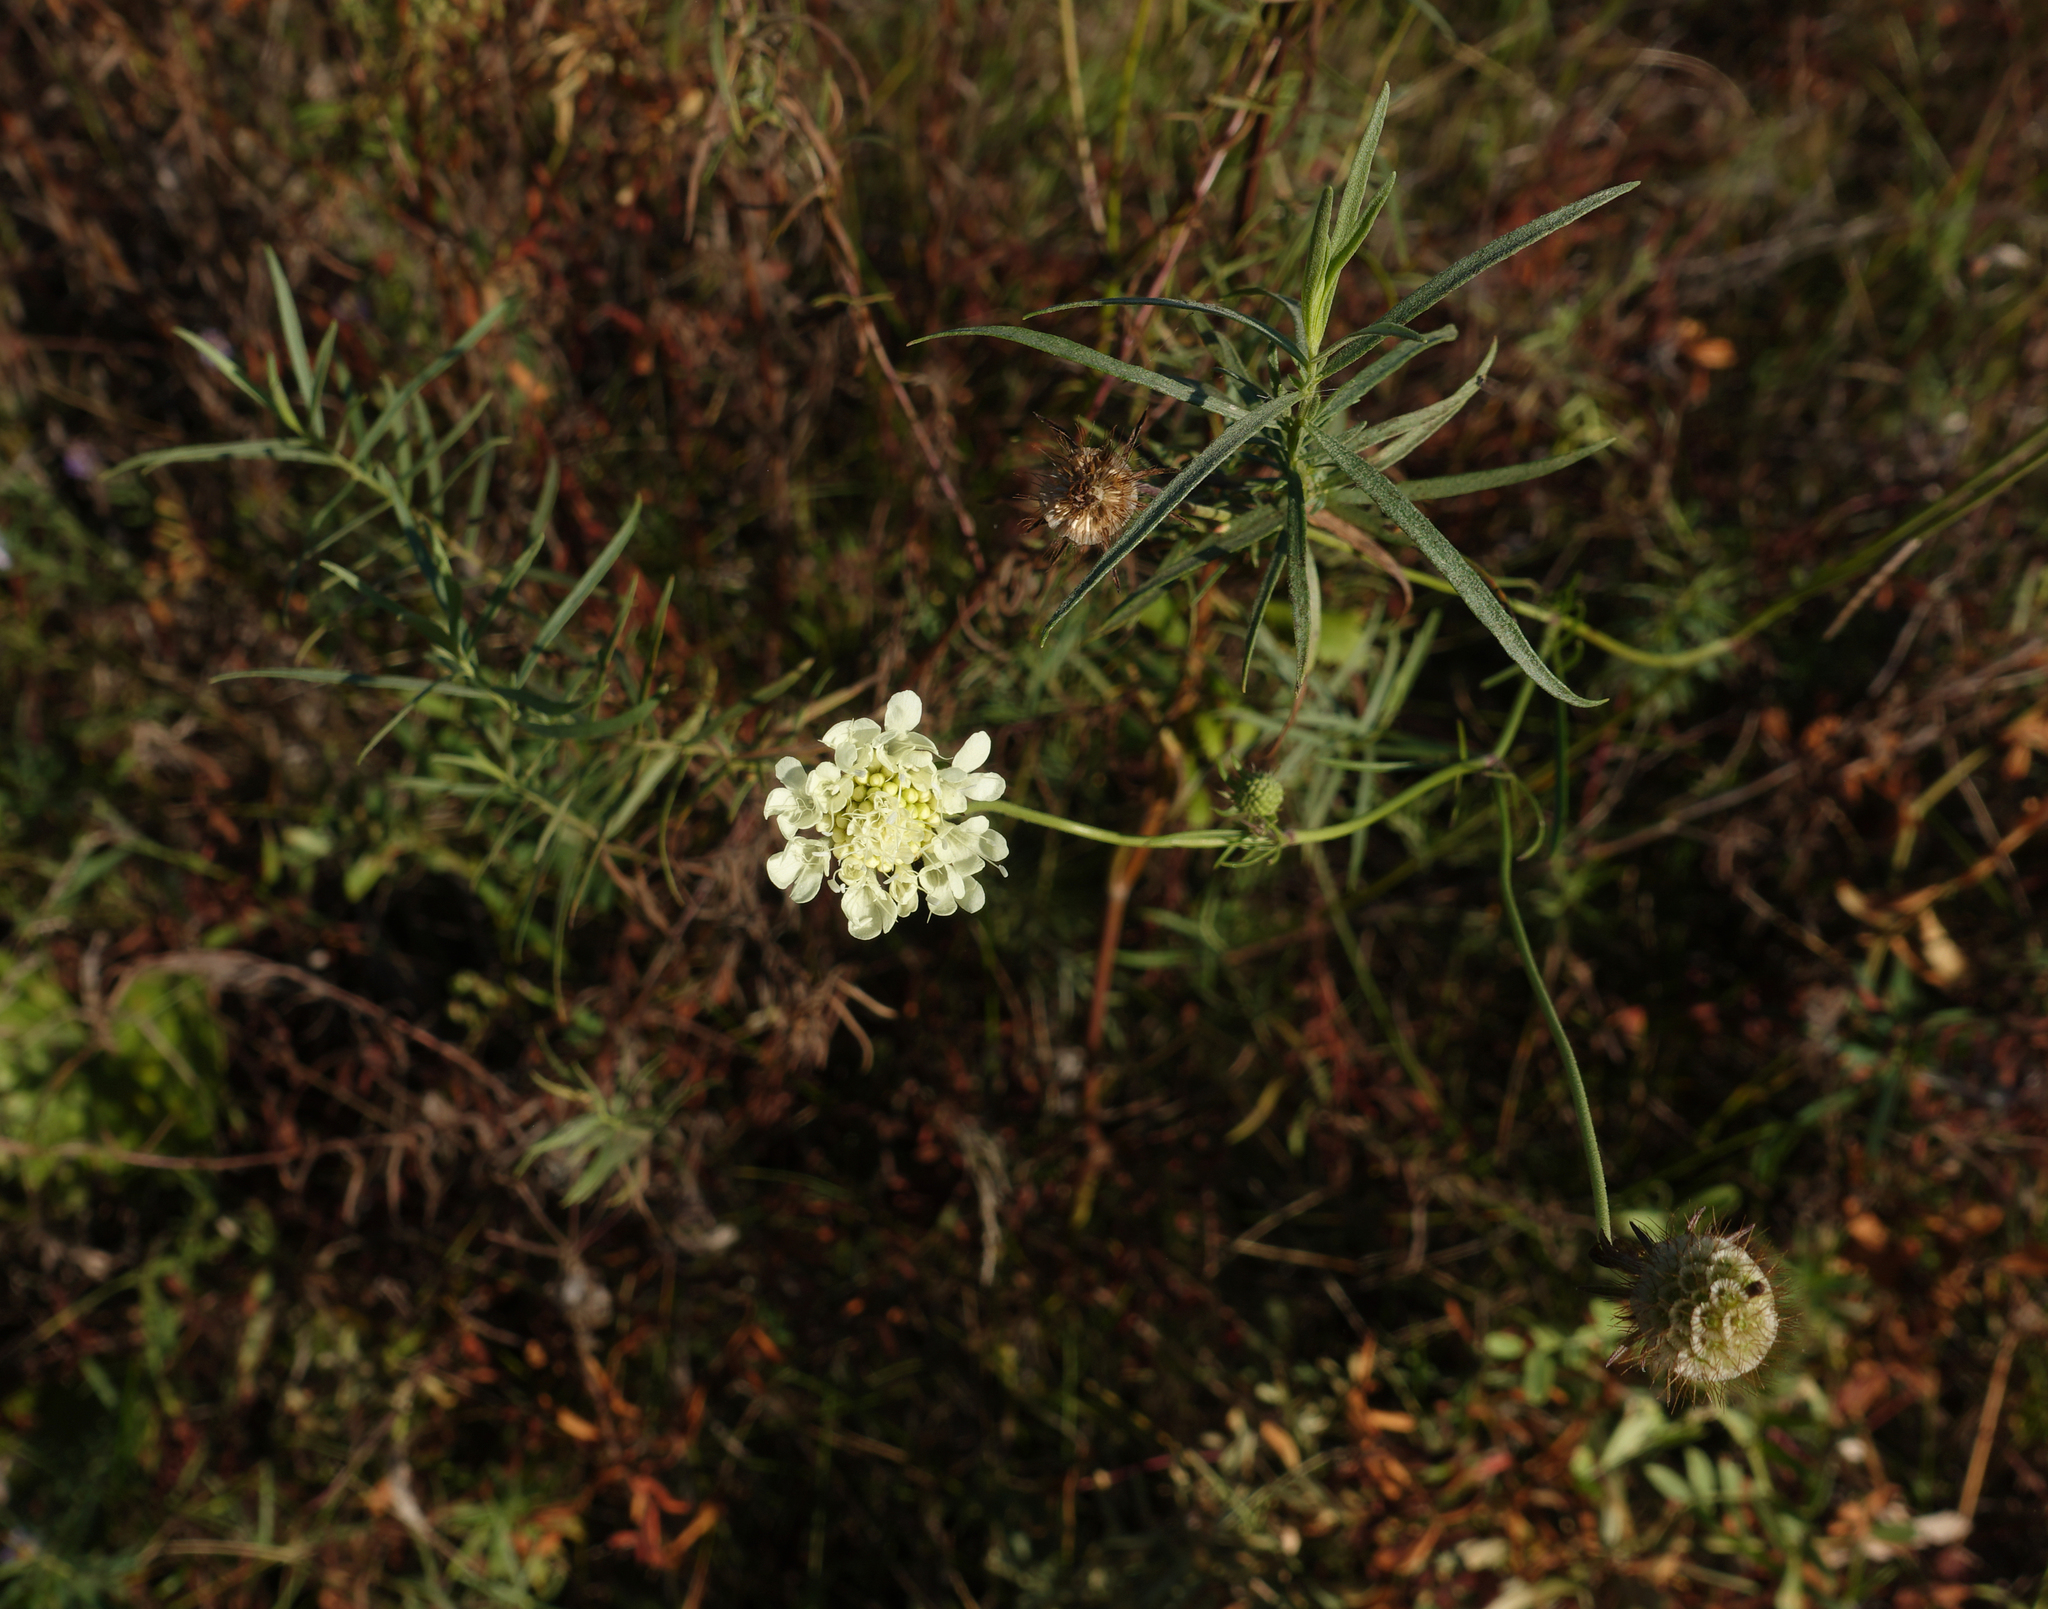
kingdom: Plantae
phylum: Tracheophyta
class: Magnoliopsida
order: Dipsacales
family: Caprifoliaceae
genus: Scabiosa
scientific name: Scabiosa ochroleuca
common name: Cream pincushions
